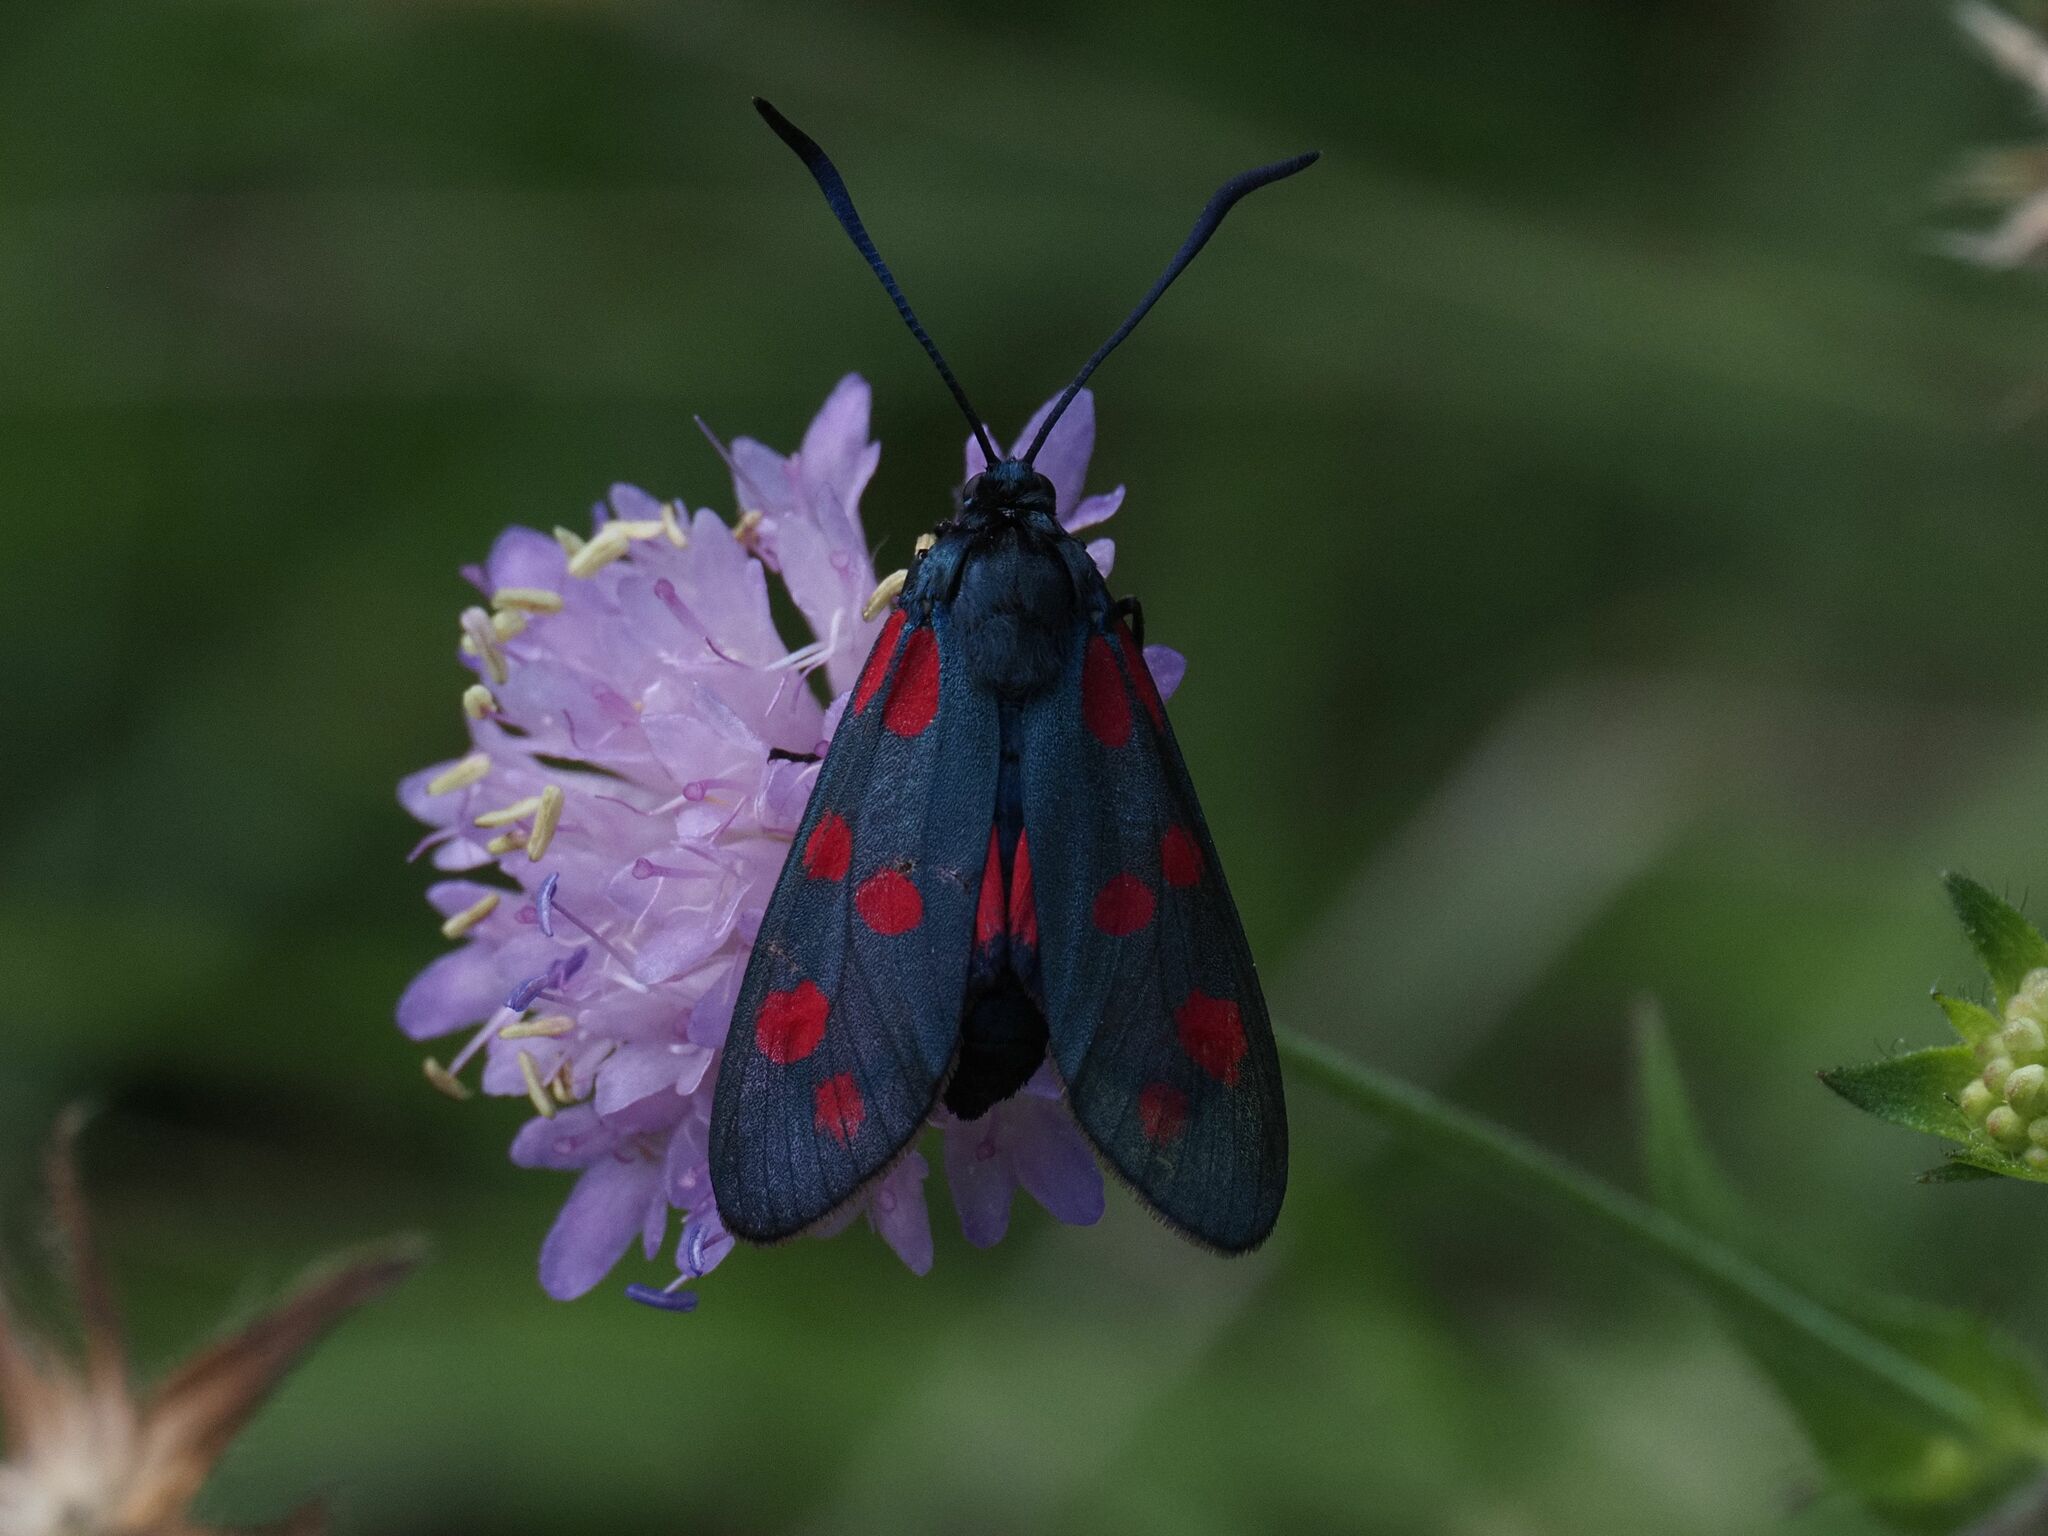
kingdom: Animalia
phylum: Arthropoda
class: Insecta
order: Lepidoptera
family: Zygaenidae
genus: Zygaena
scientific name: Zygaena filipendulae
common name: Six-spot burnet
